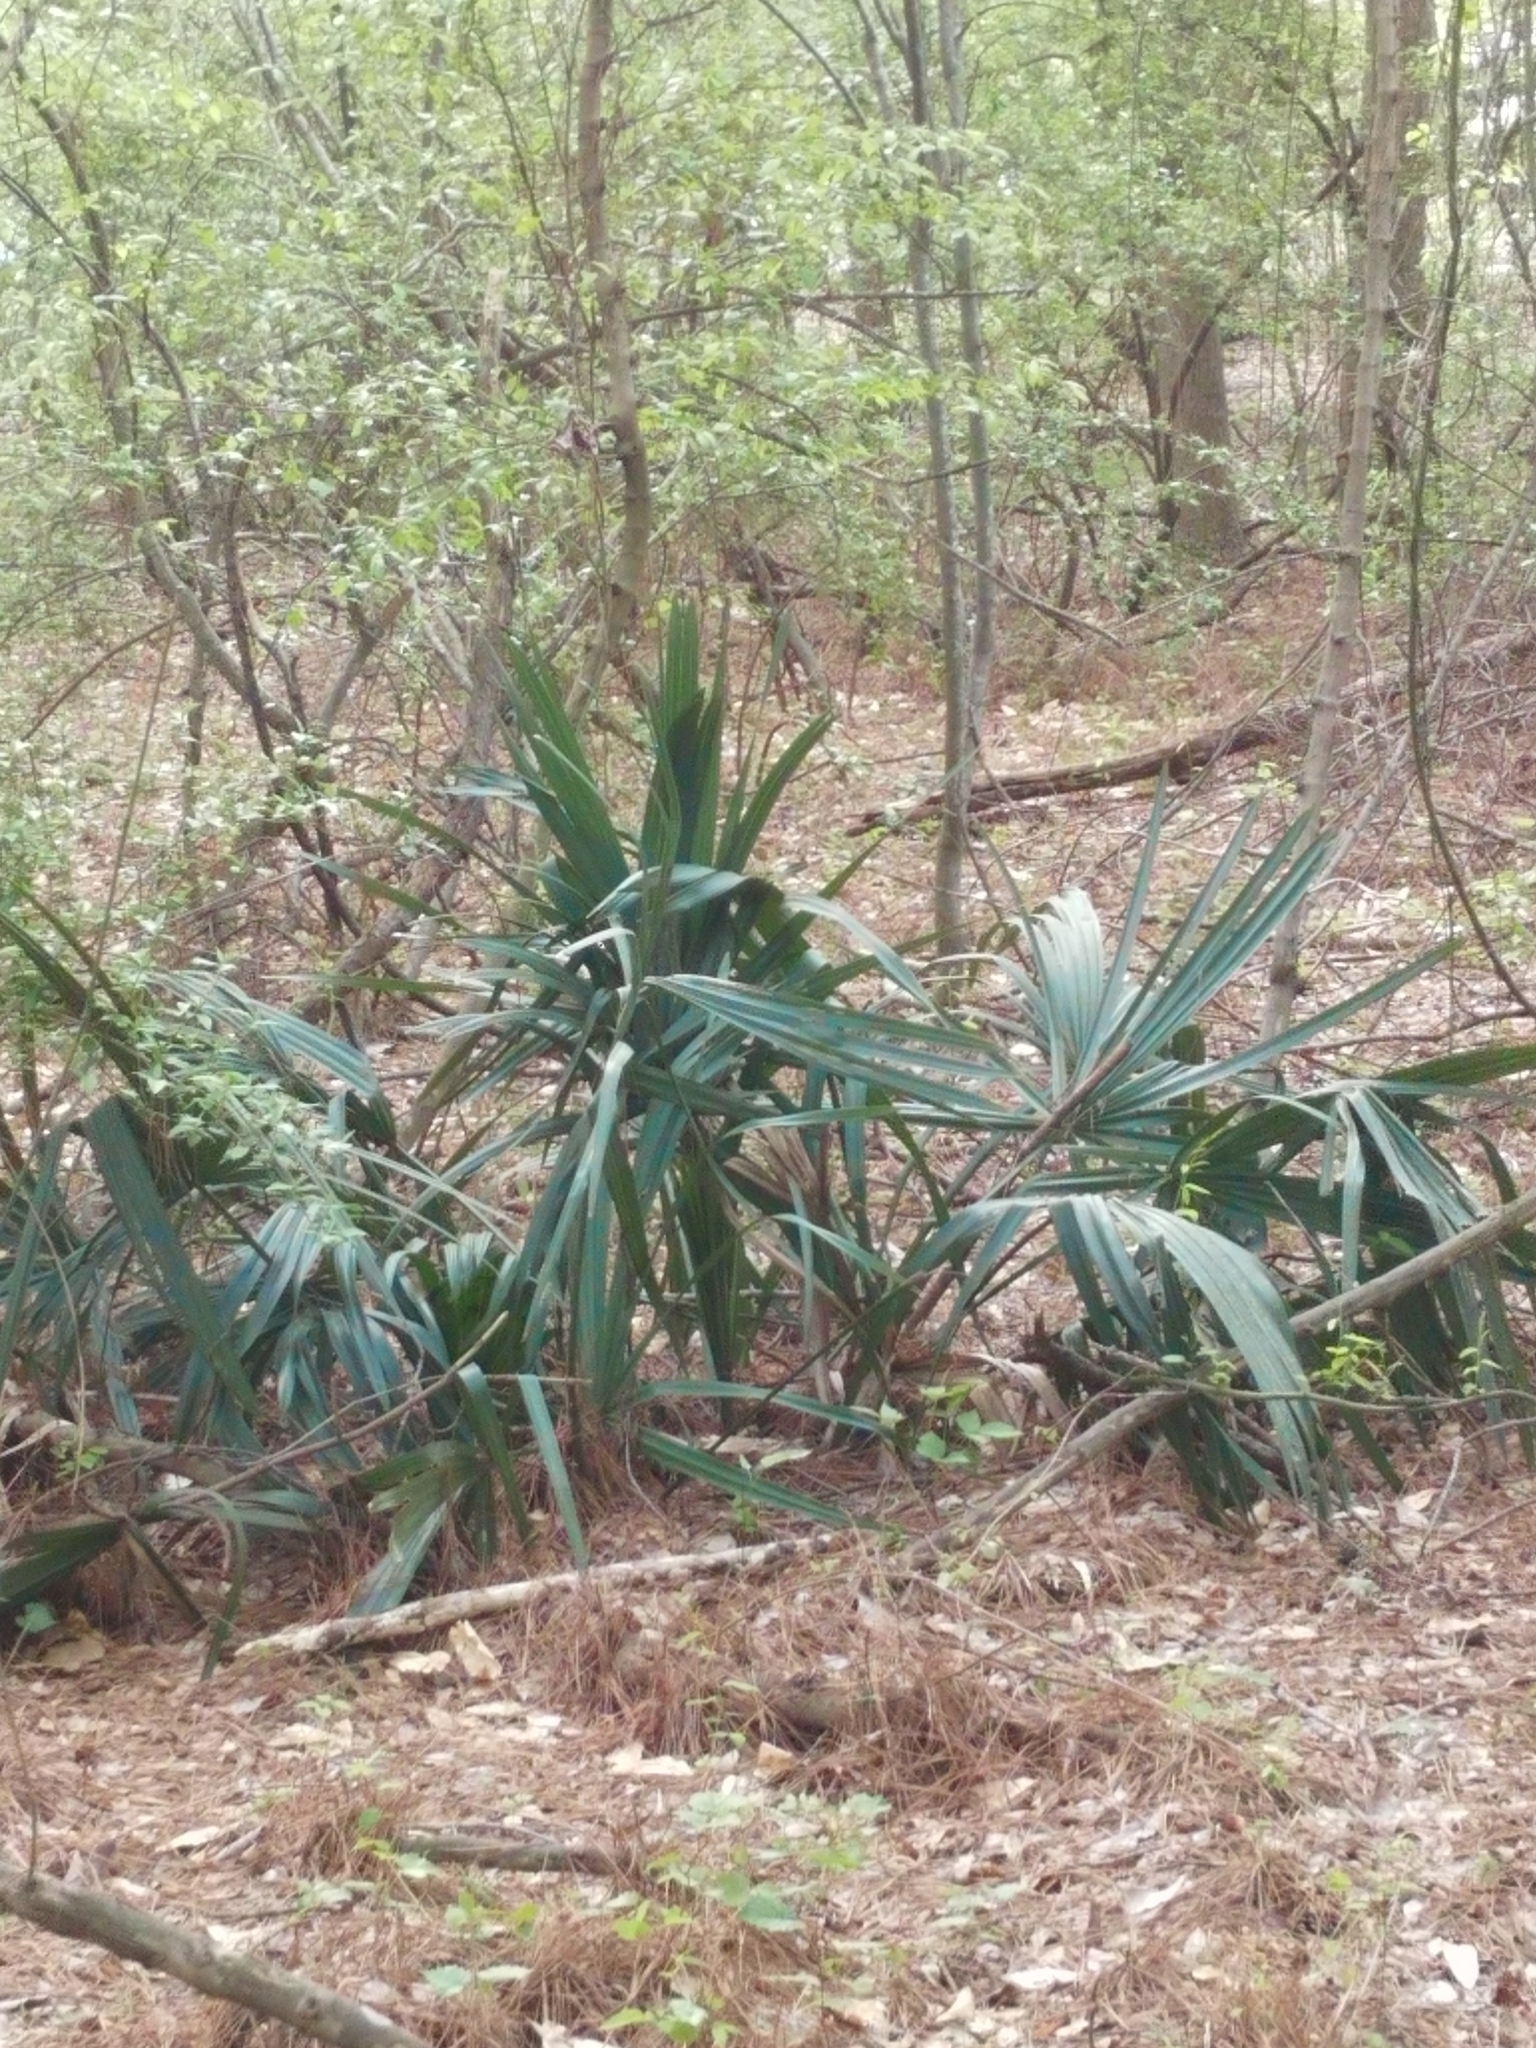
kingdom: Plantae
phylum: Tracheophyta
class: Liliopsida
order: Arecales
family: Arecaceae
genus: Sabal
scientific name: Sabal minor
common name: Dwarf palmetto
